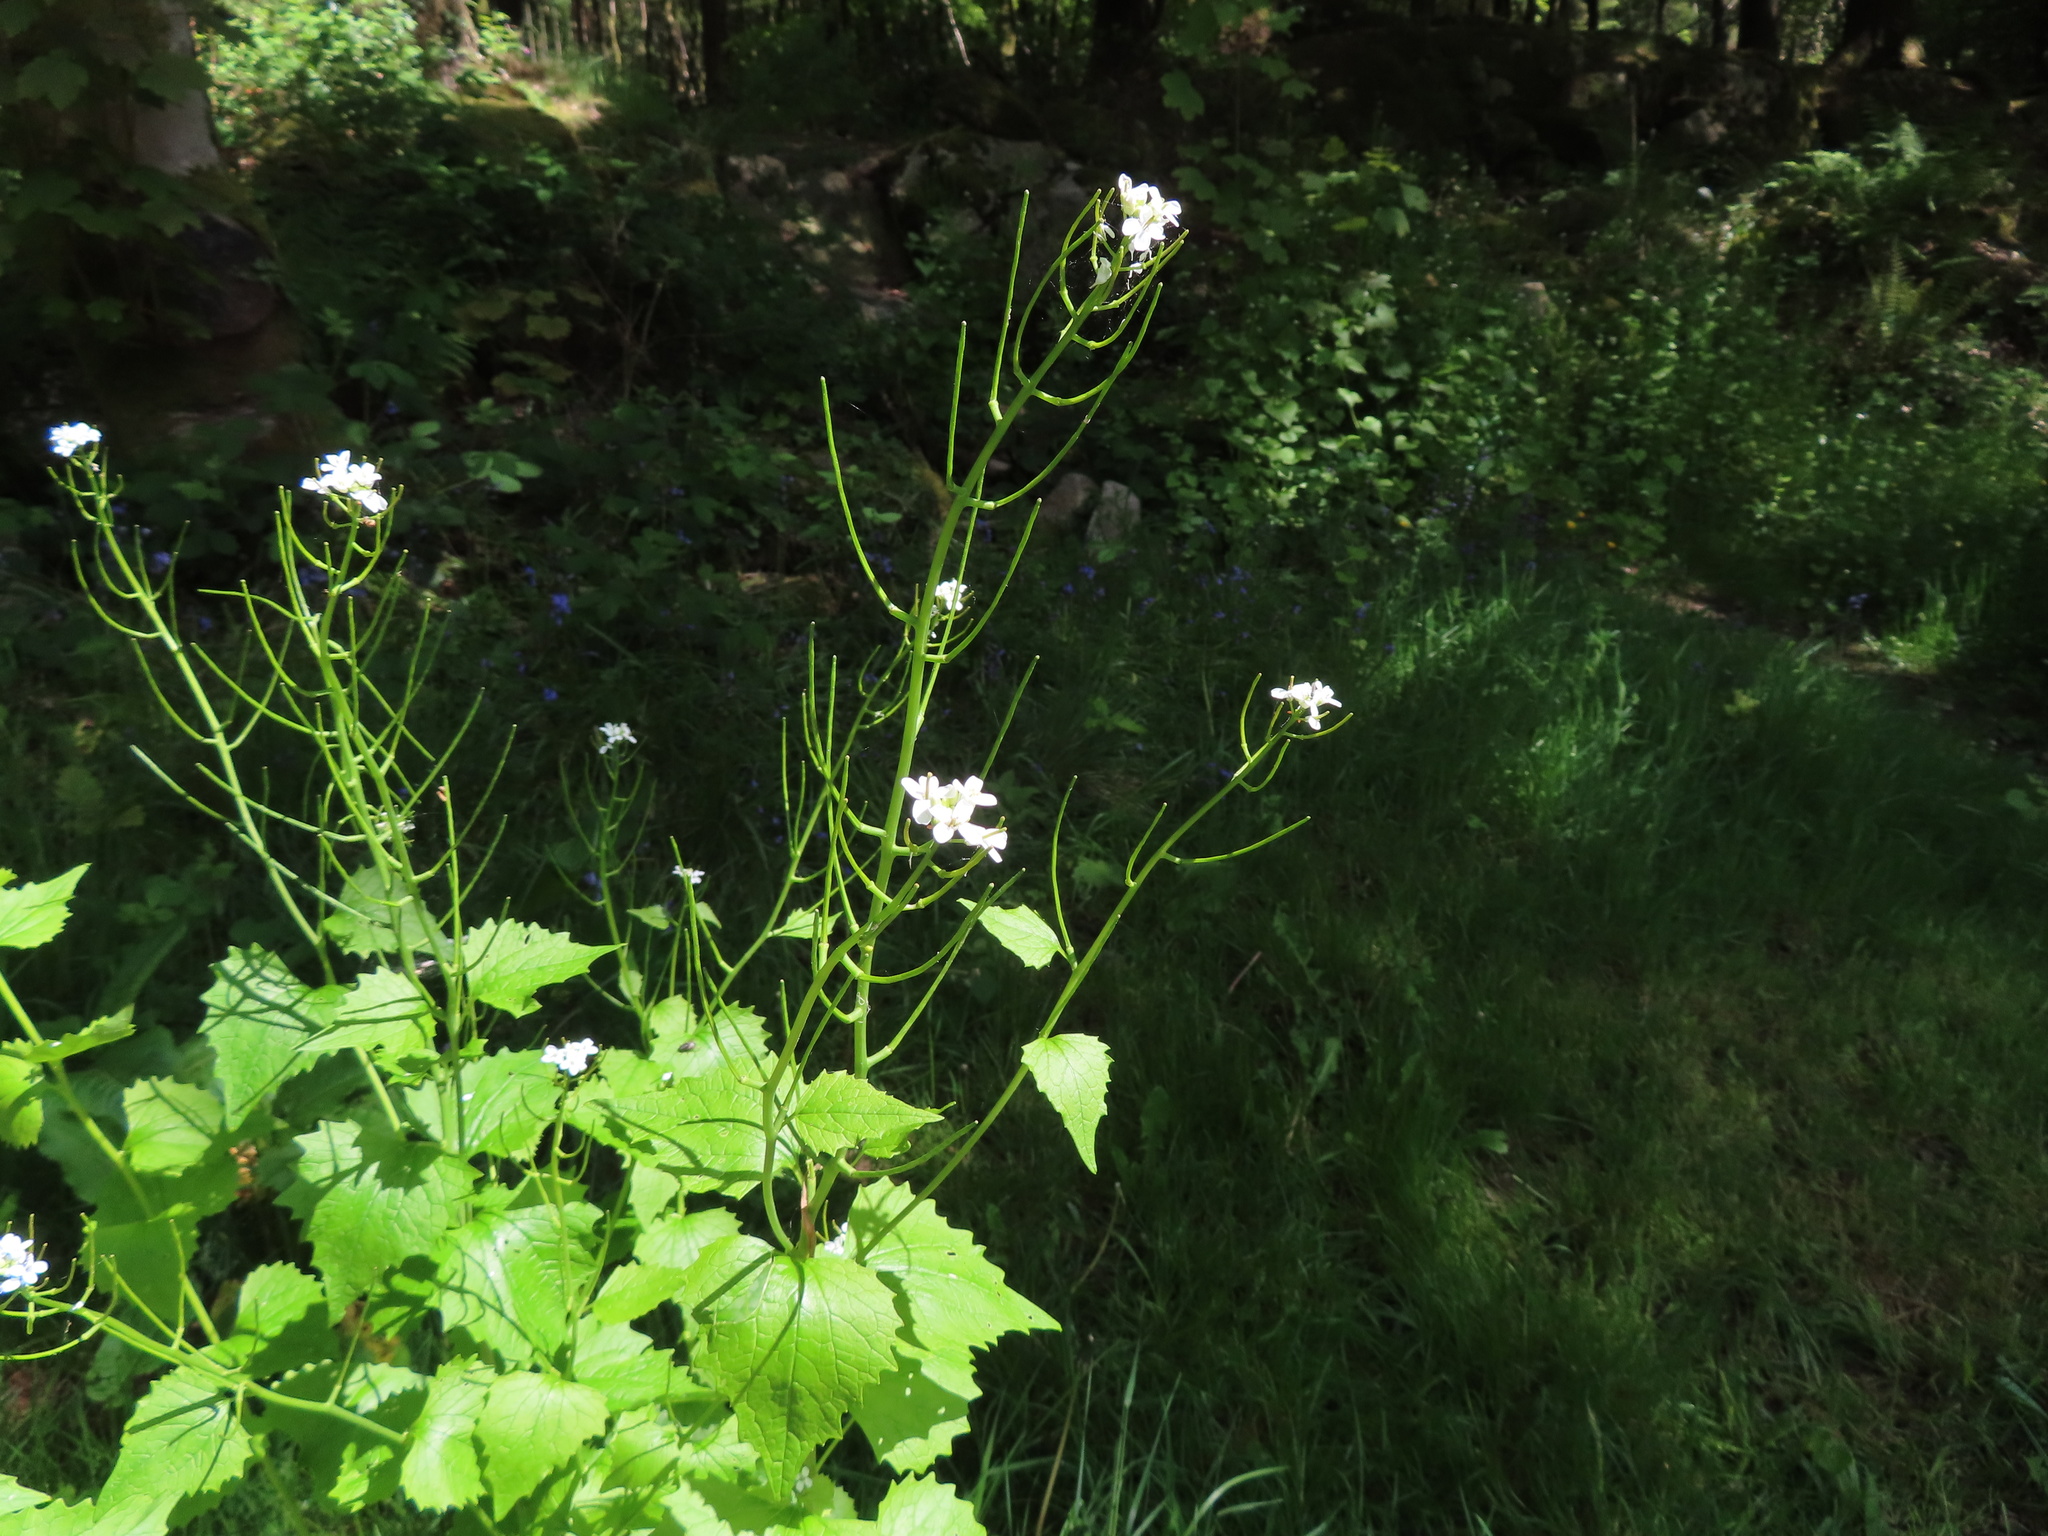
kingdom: Plantae
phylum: Tracheophyta
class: Magnoliopsida
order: Brassicales
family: Brassicaceae
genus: Alliaria
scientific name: Alliaria petiolata
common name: Garlic mustard
